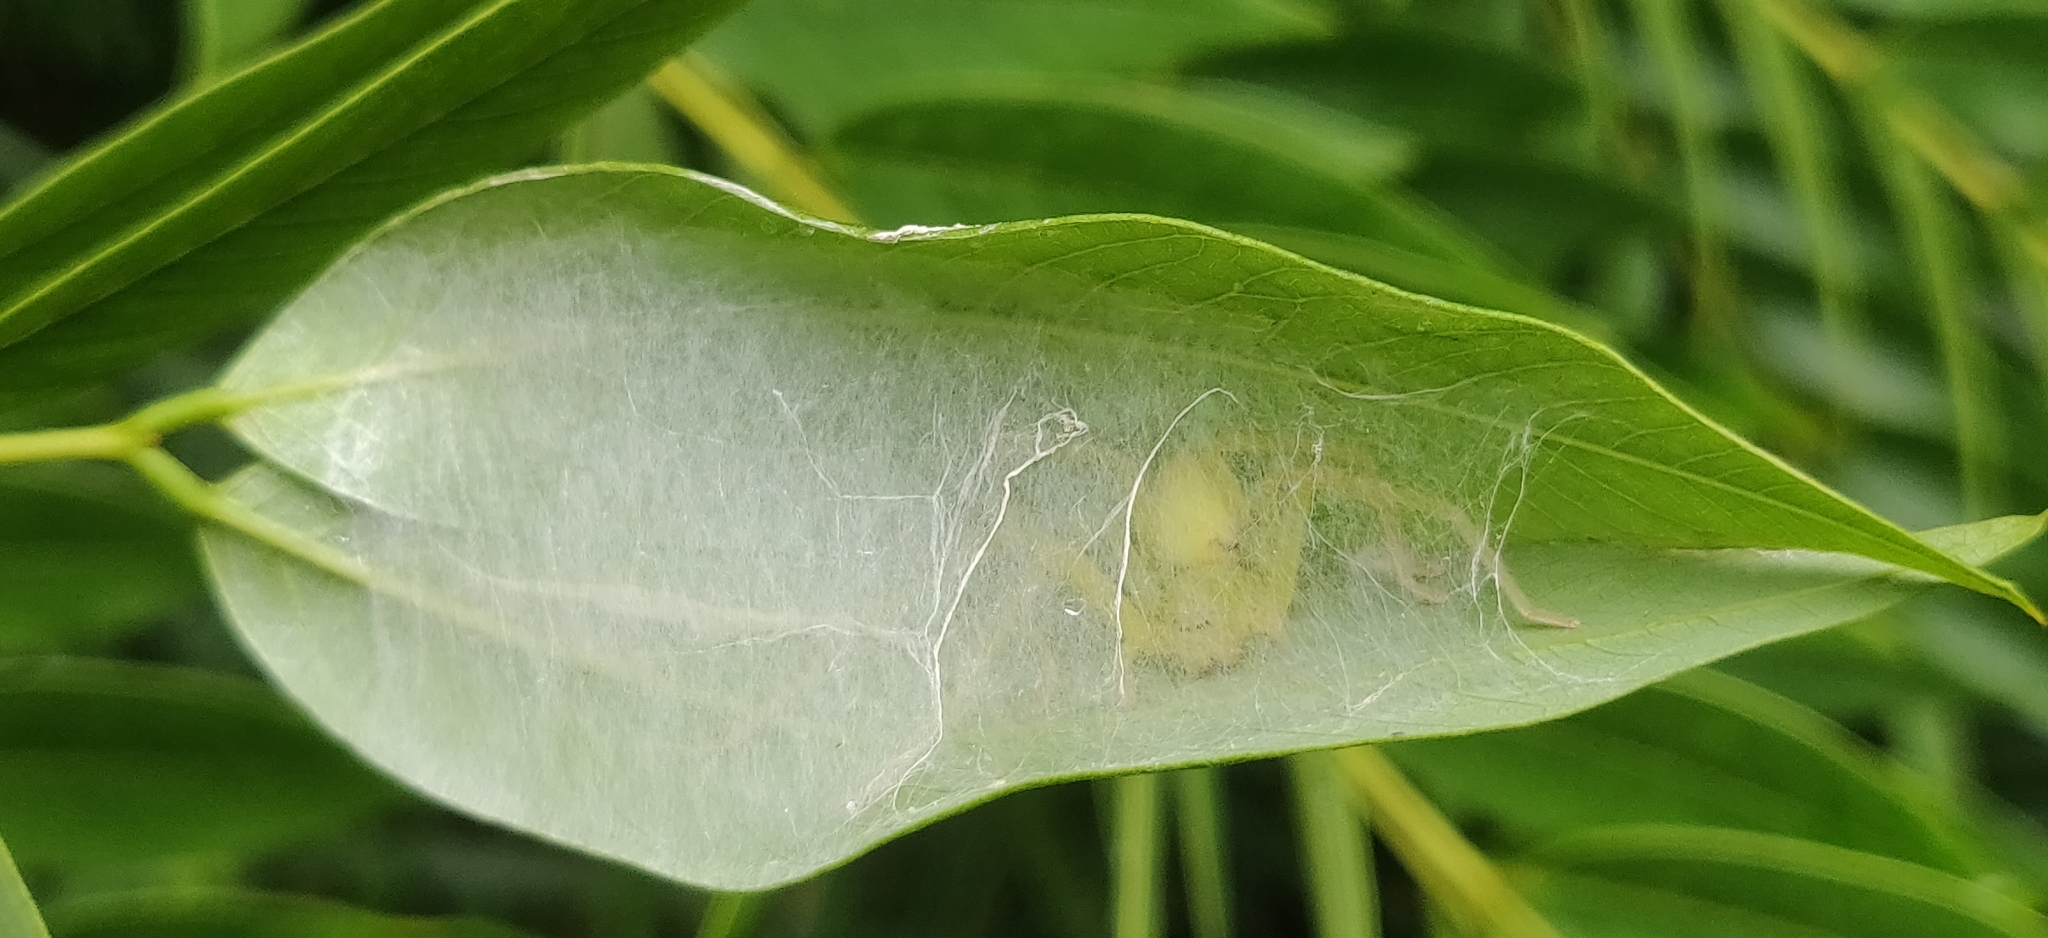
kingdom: Animalia
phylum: Arthropoda
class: Arachnida
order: Araneae
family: Sparassidae
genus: Olios
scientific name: Olios milleti
